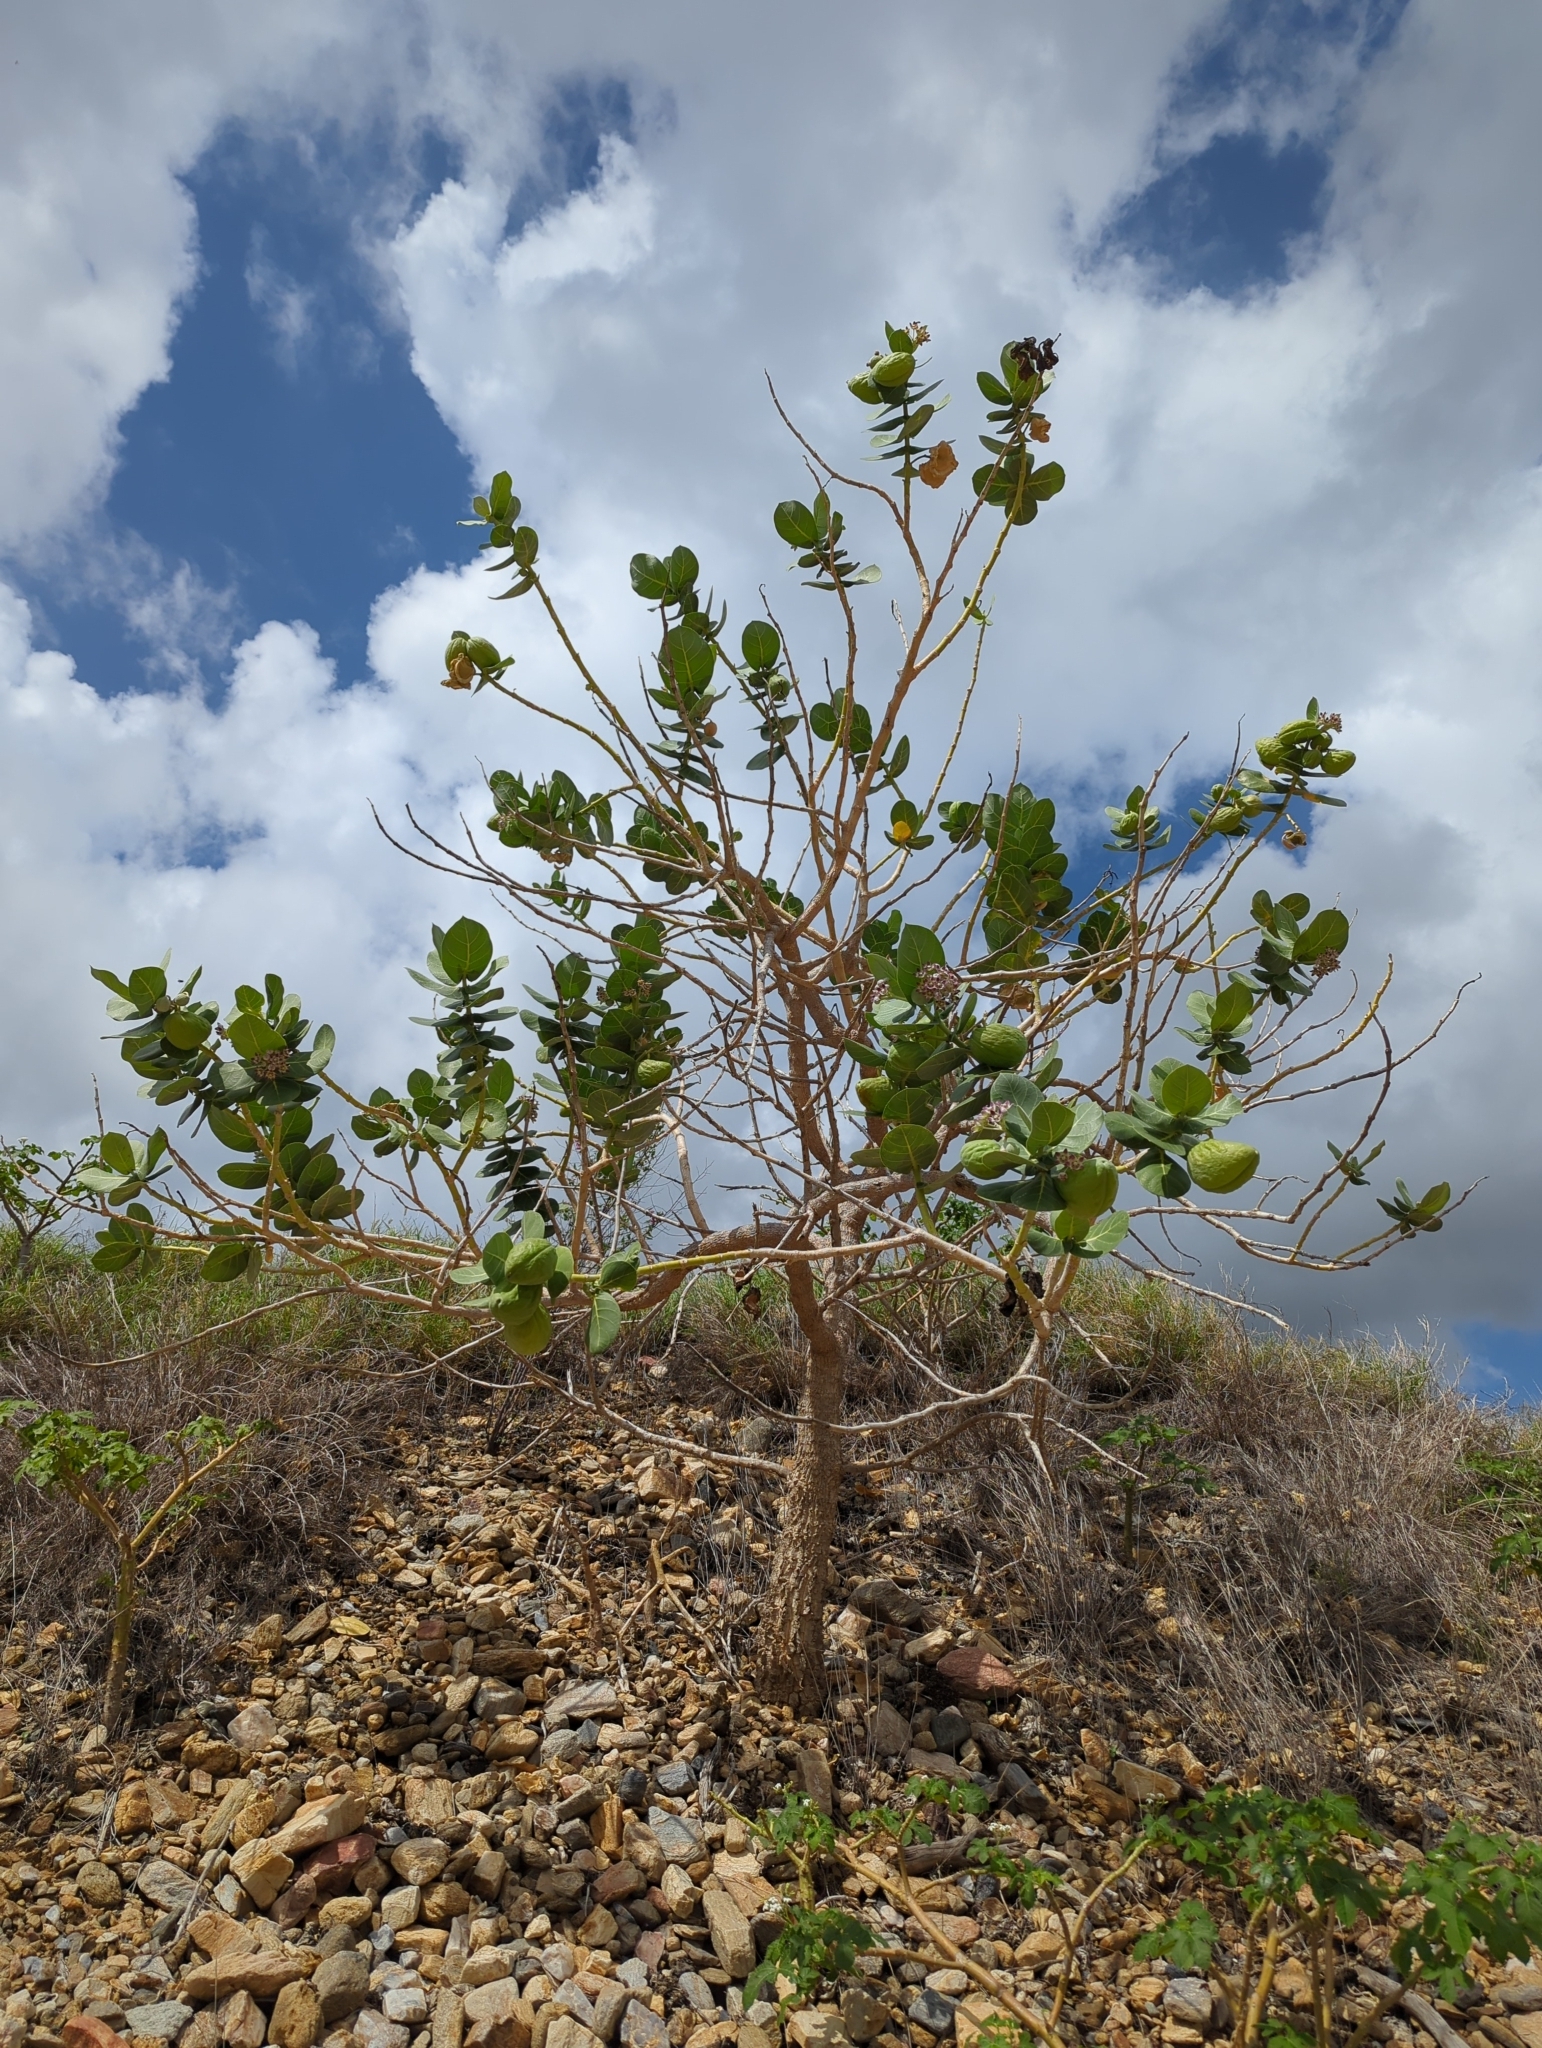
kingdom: Plantae
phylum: Tracheophyta
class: Magnoliopsida
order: Gentianales
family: Apocynaceae
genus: Calotropis
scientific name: Calotropis procera
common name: Roostertree
